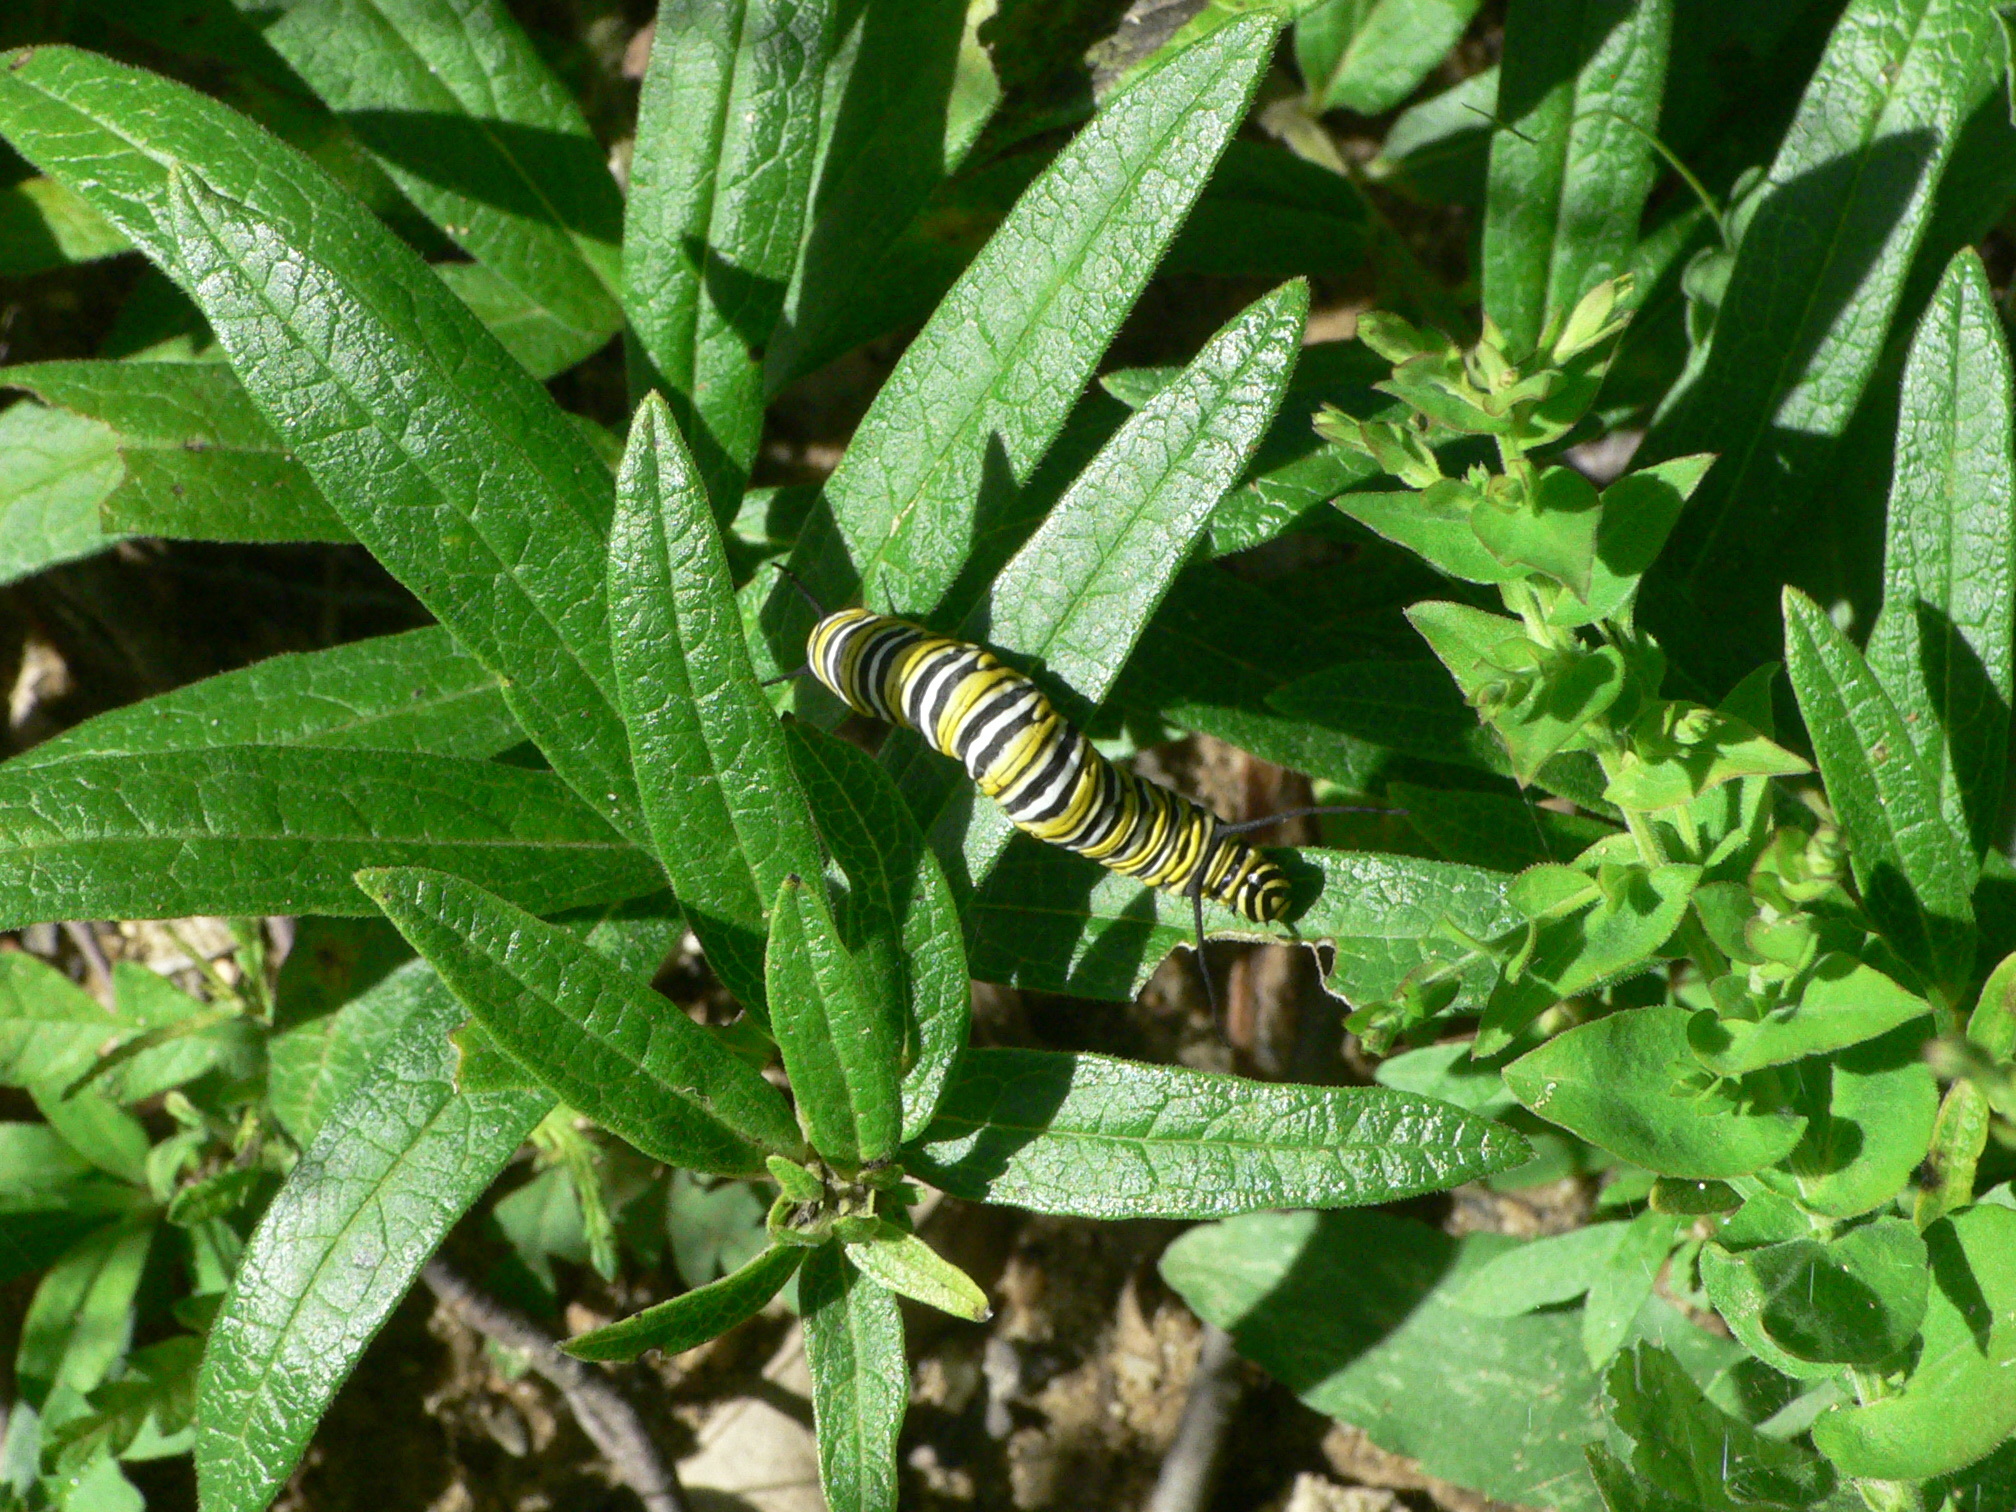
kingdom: Animalia
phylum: Arthropoda
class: Insecta
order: Lepidoptera
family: Nymphalidae
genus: Danaus
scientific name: Danaus plexippus
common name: Monarch
